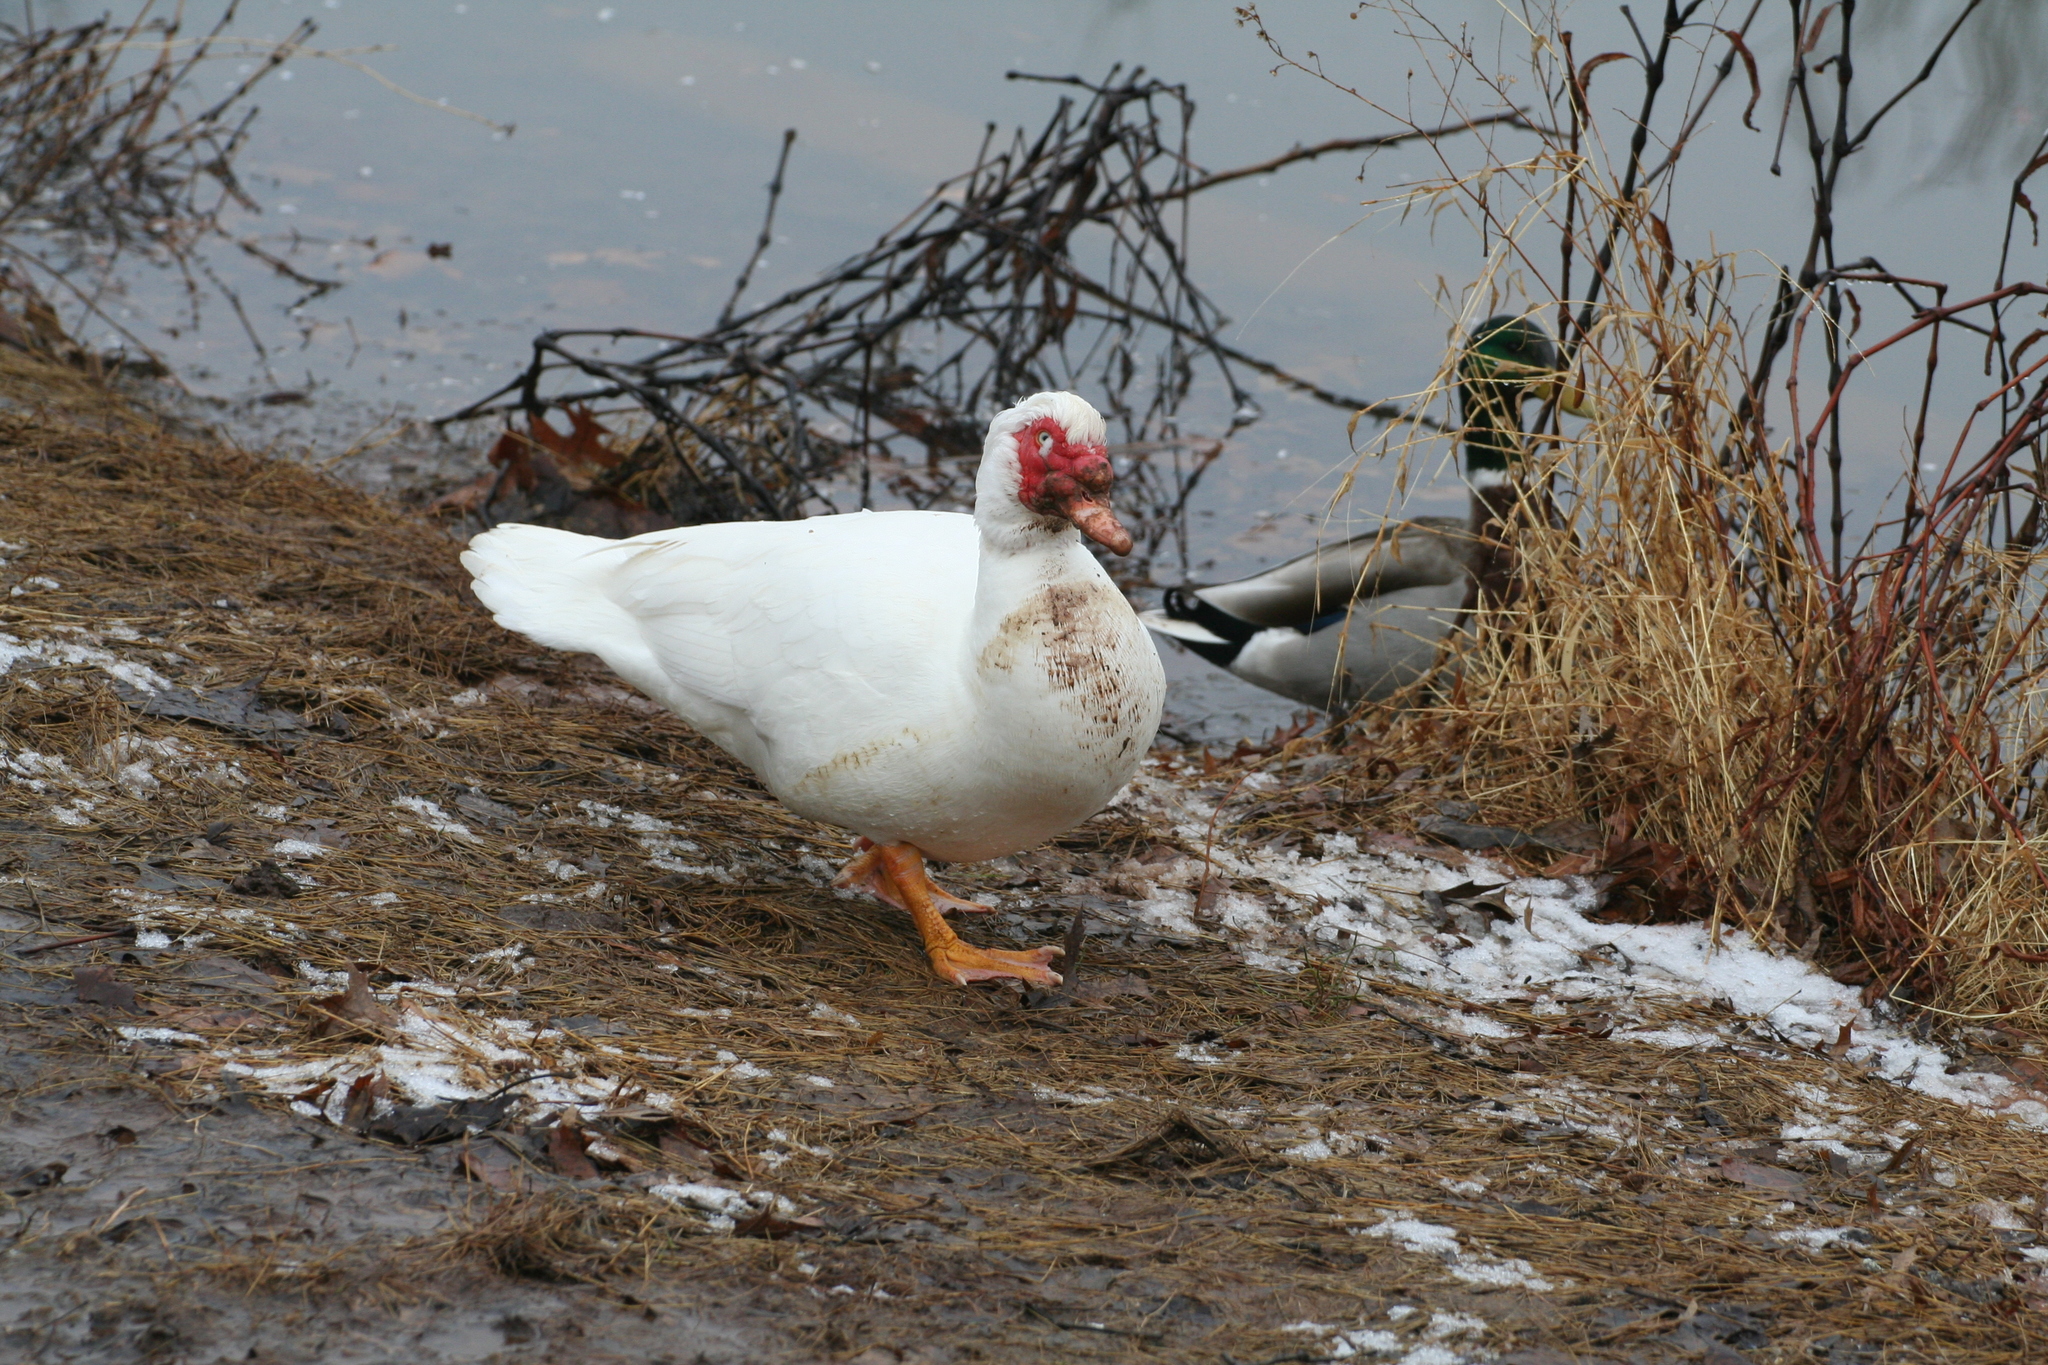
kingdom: Animalia
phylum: Chordata
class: Aves
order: Anseriformes
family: Anatidae
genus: Cairina
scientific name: Cairina moschata
